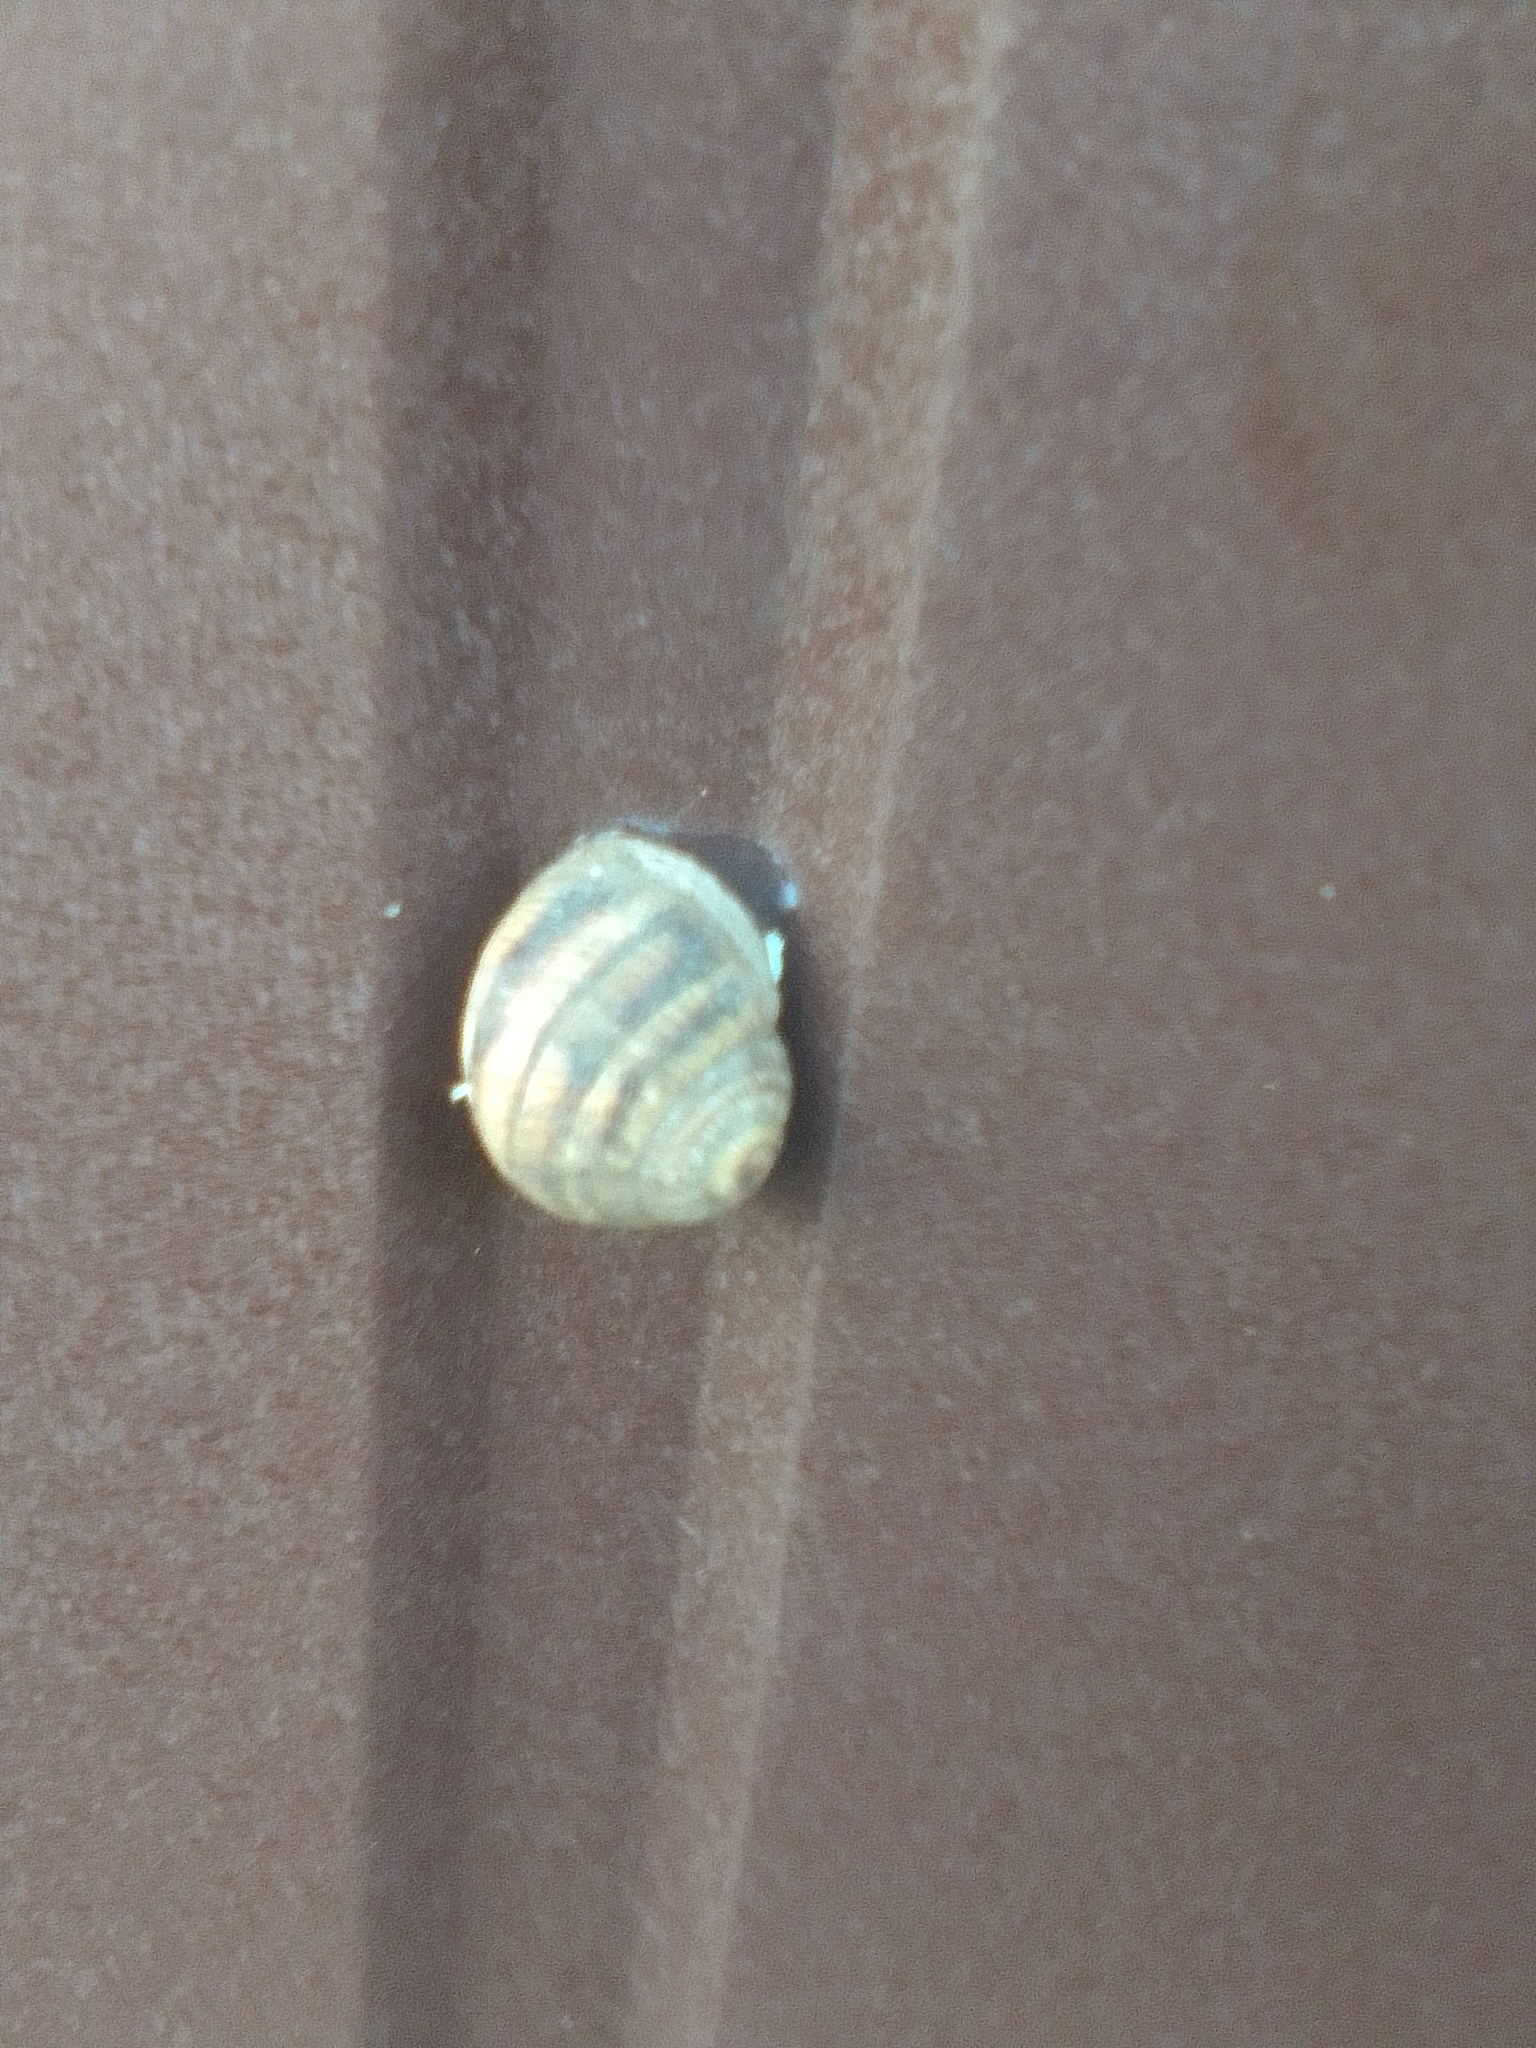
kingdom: Animalia
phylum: Mollusca
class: Gastropoda
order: Stylommatophora
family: Helicidae
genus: Helix
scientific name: Helix albescens
